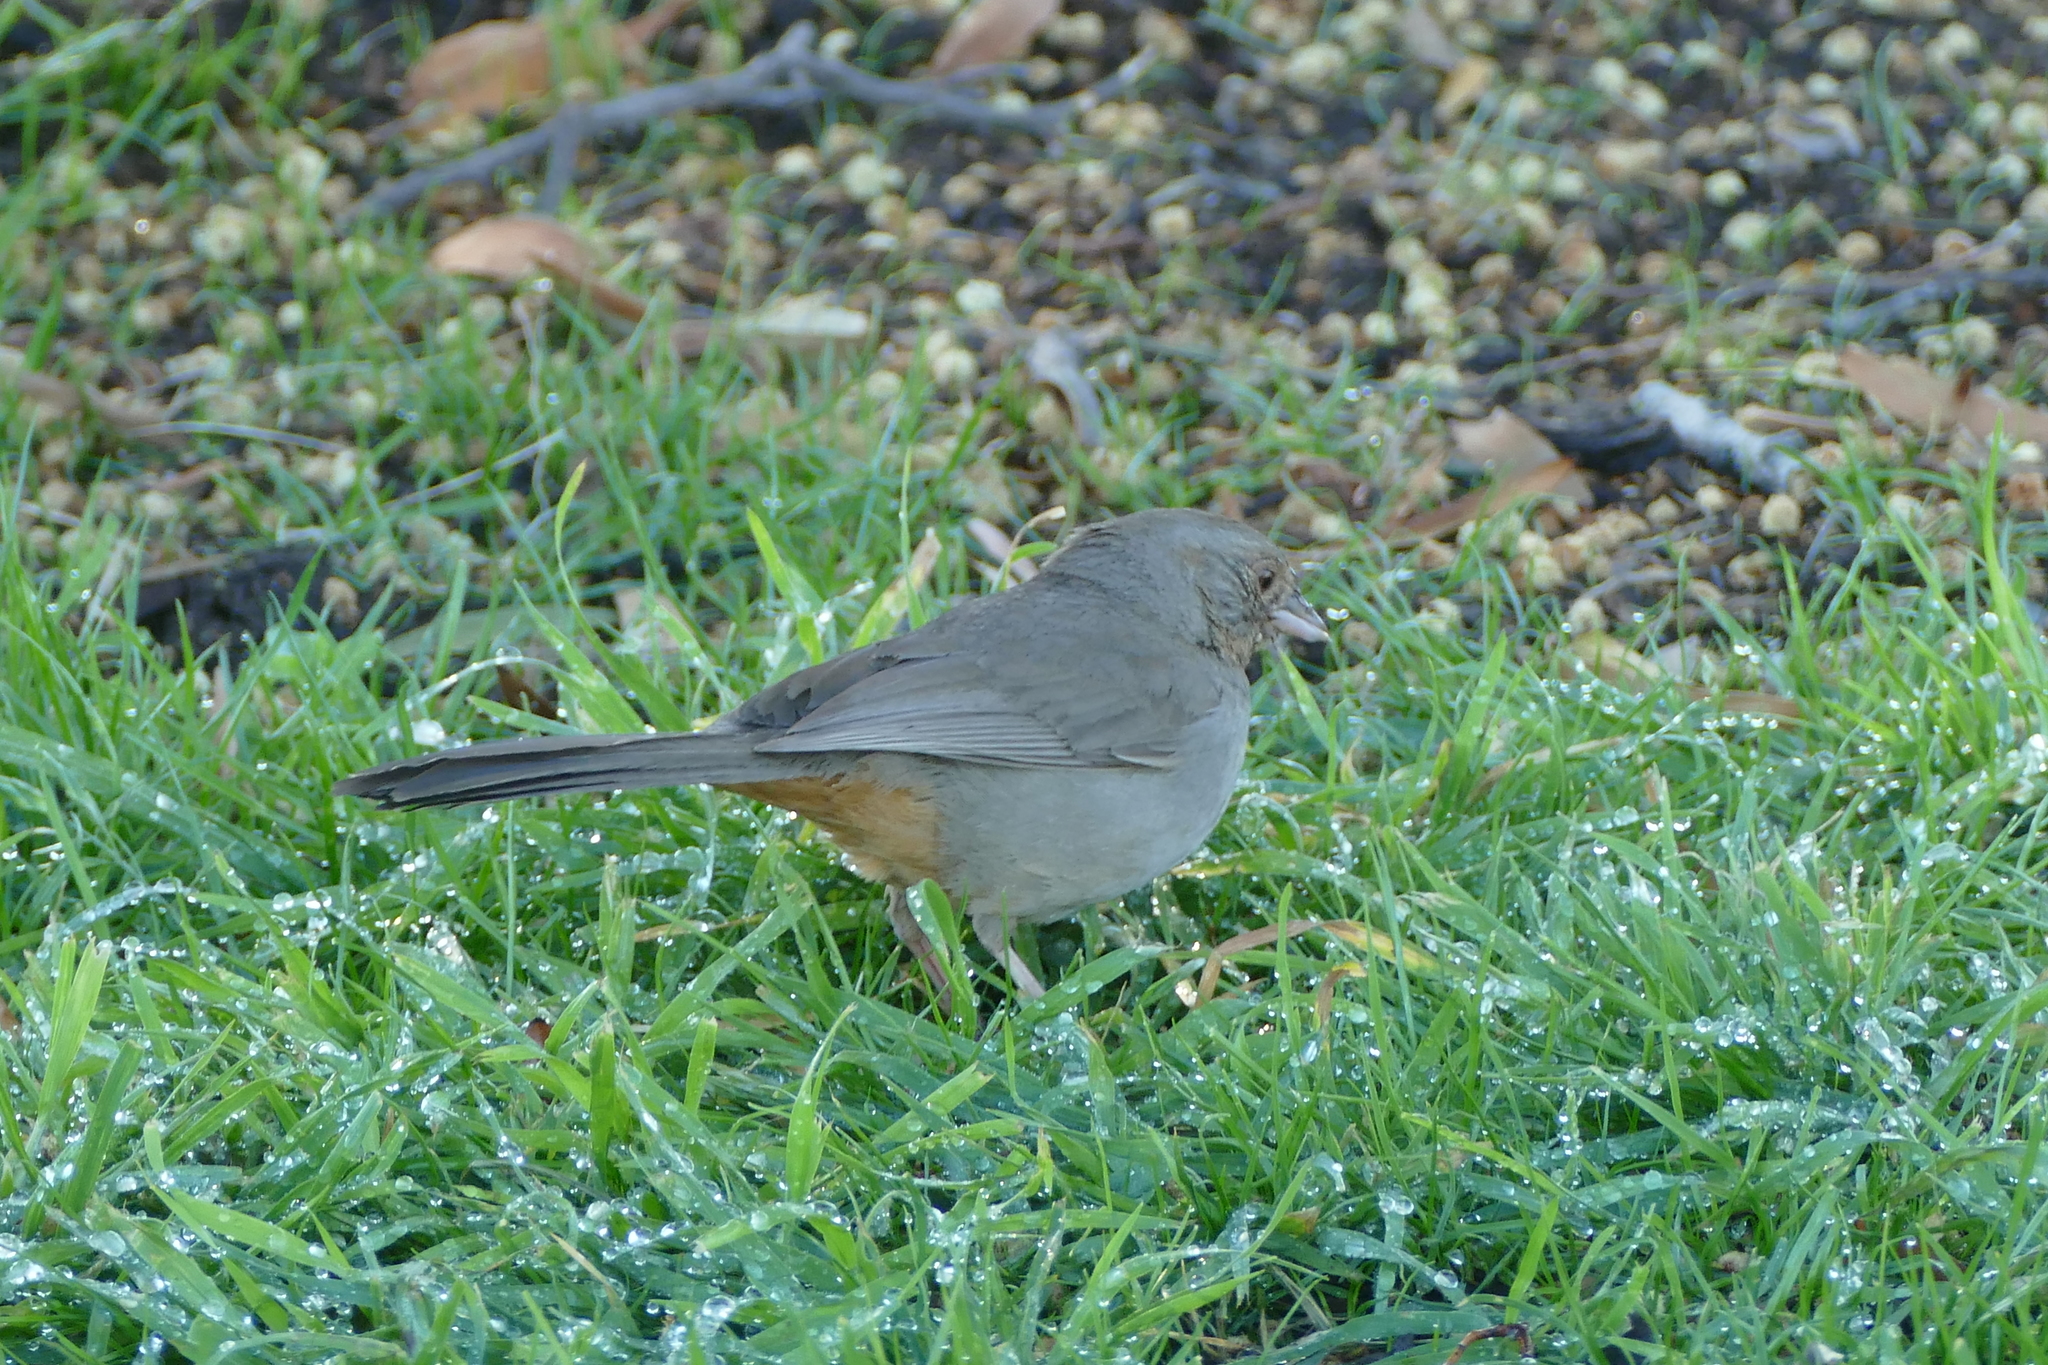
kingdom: Animalia
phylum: Chordata
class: Aves
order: Passeriformes
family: Passerellidae
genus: Melozone
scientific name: Melozone crissalis
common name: California towhee
